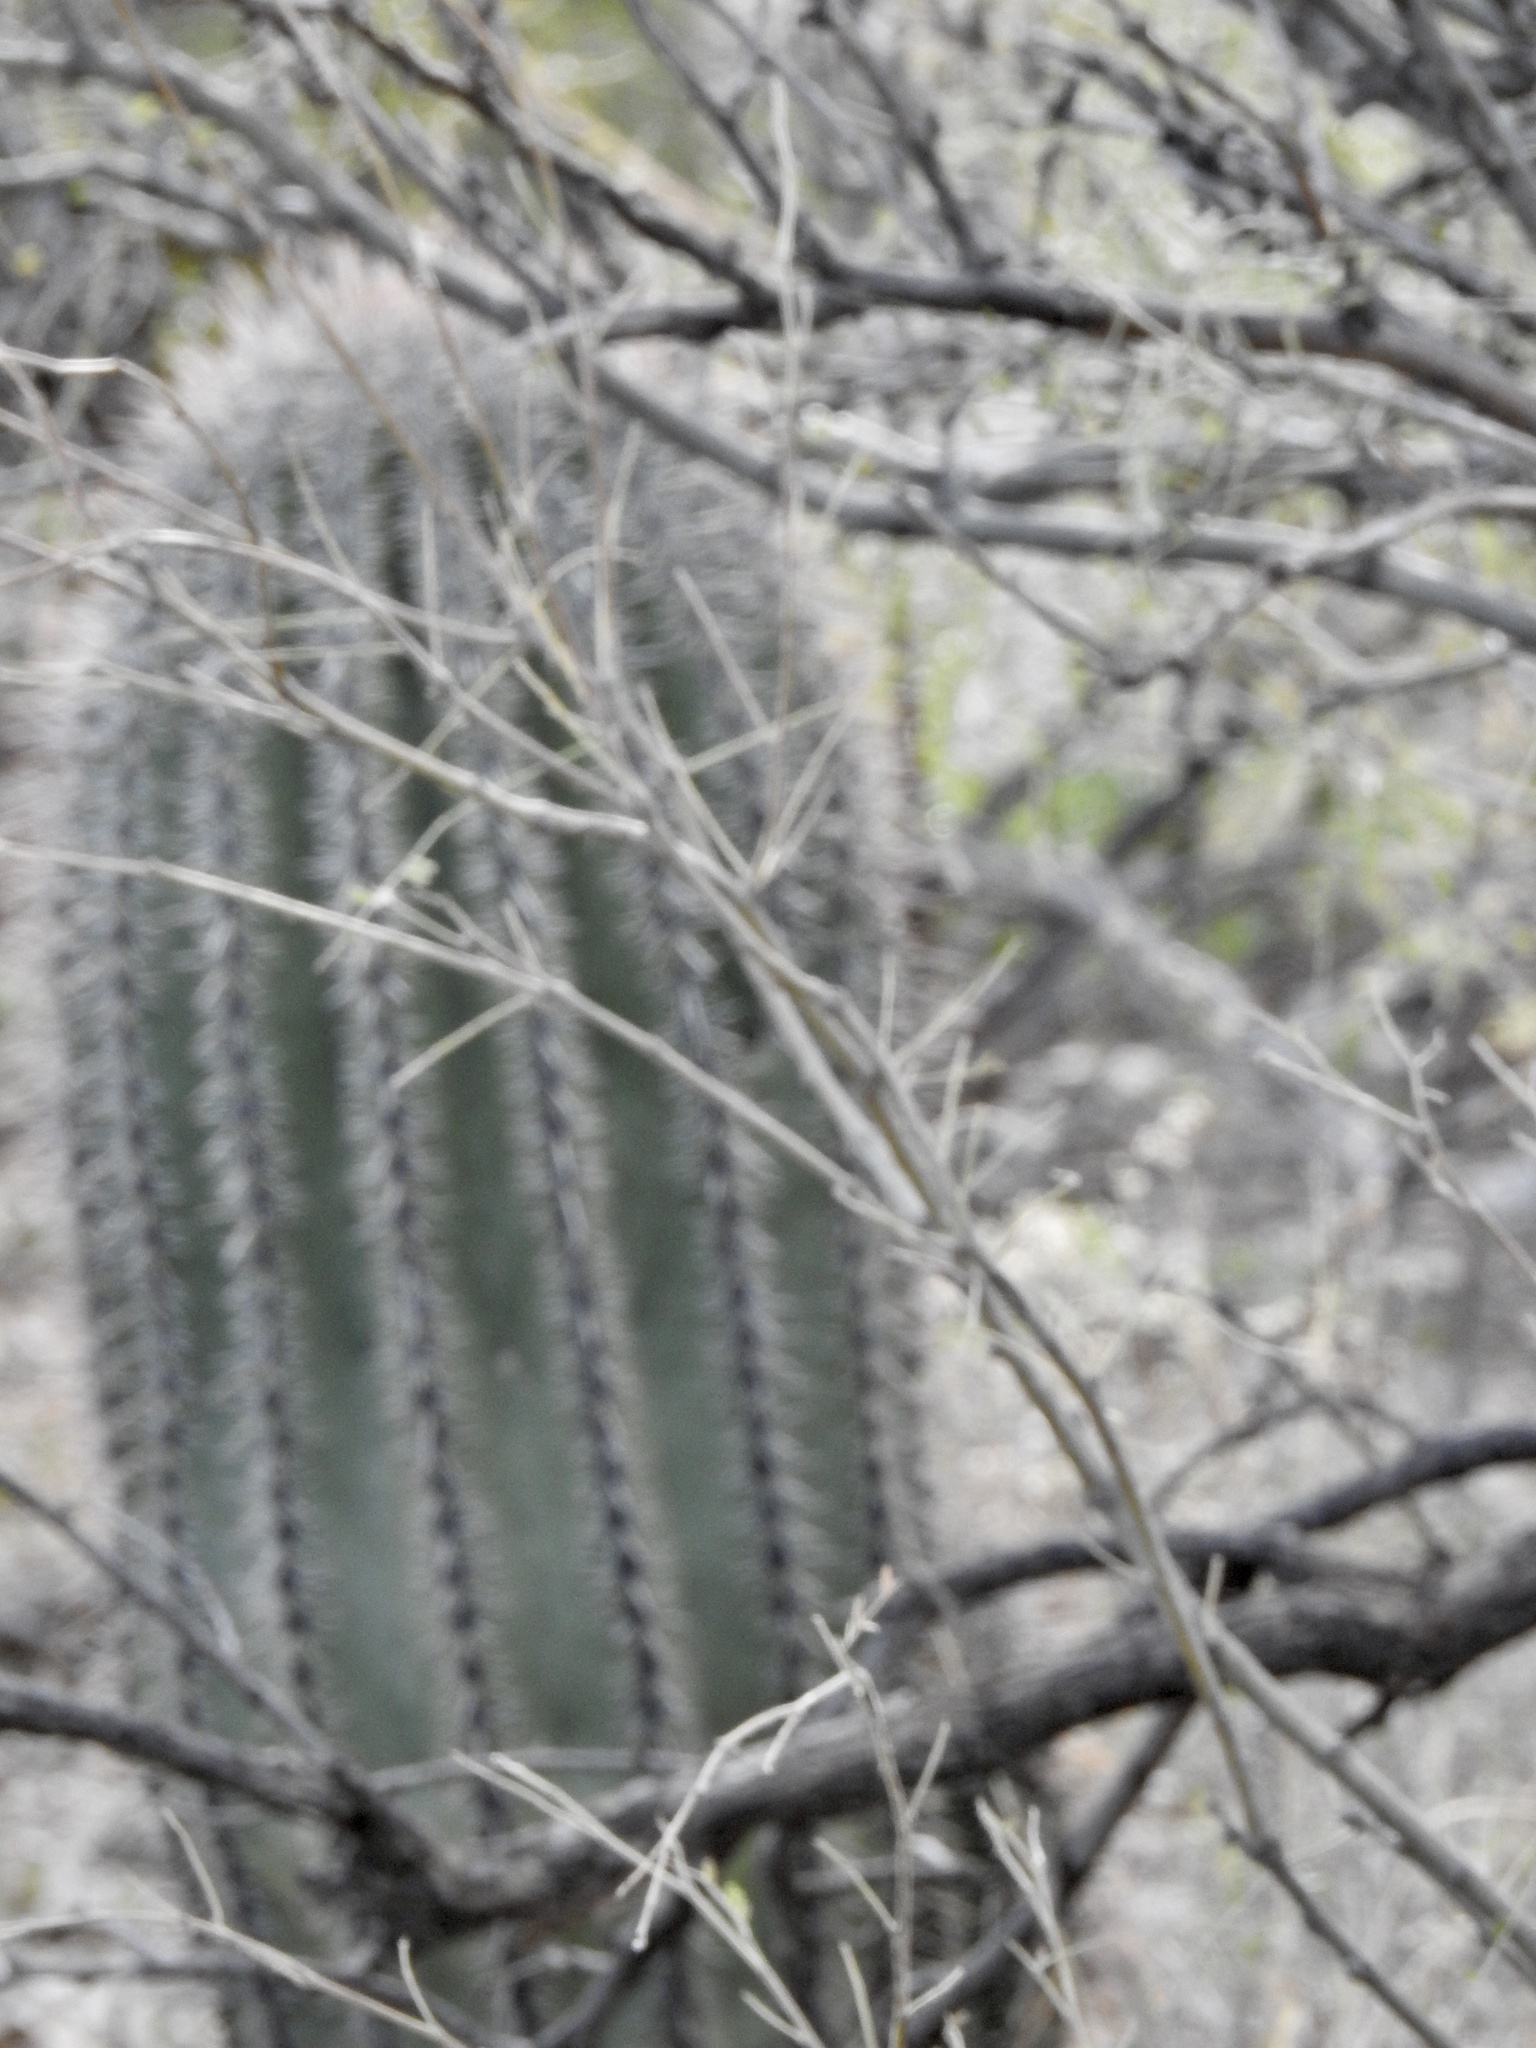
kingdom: Plantae
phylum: Tracheophyta
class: Magnoliopsida
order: Caryophyllales
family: Cactaceae
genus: Carnegiea
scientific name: Carnegiea gigantea
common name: Saguaro
